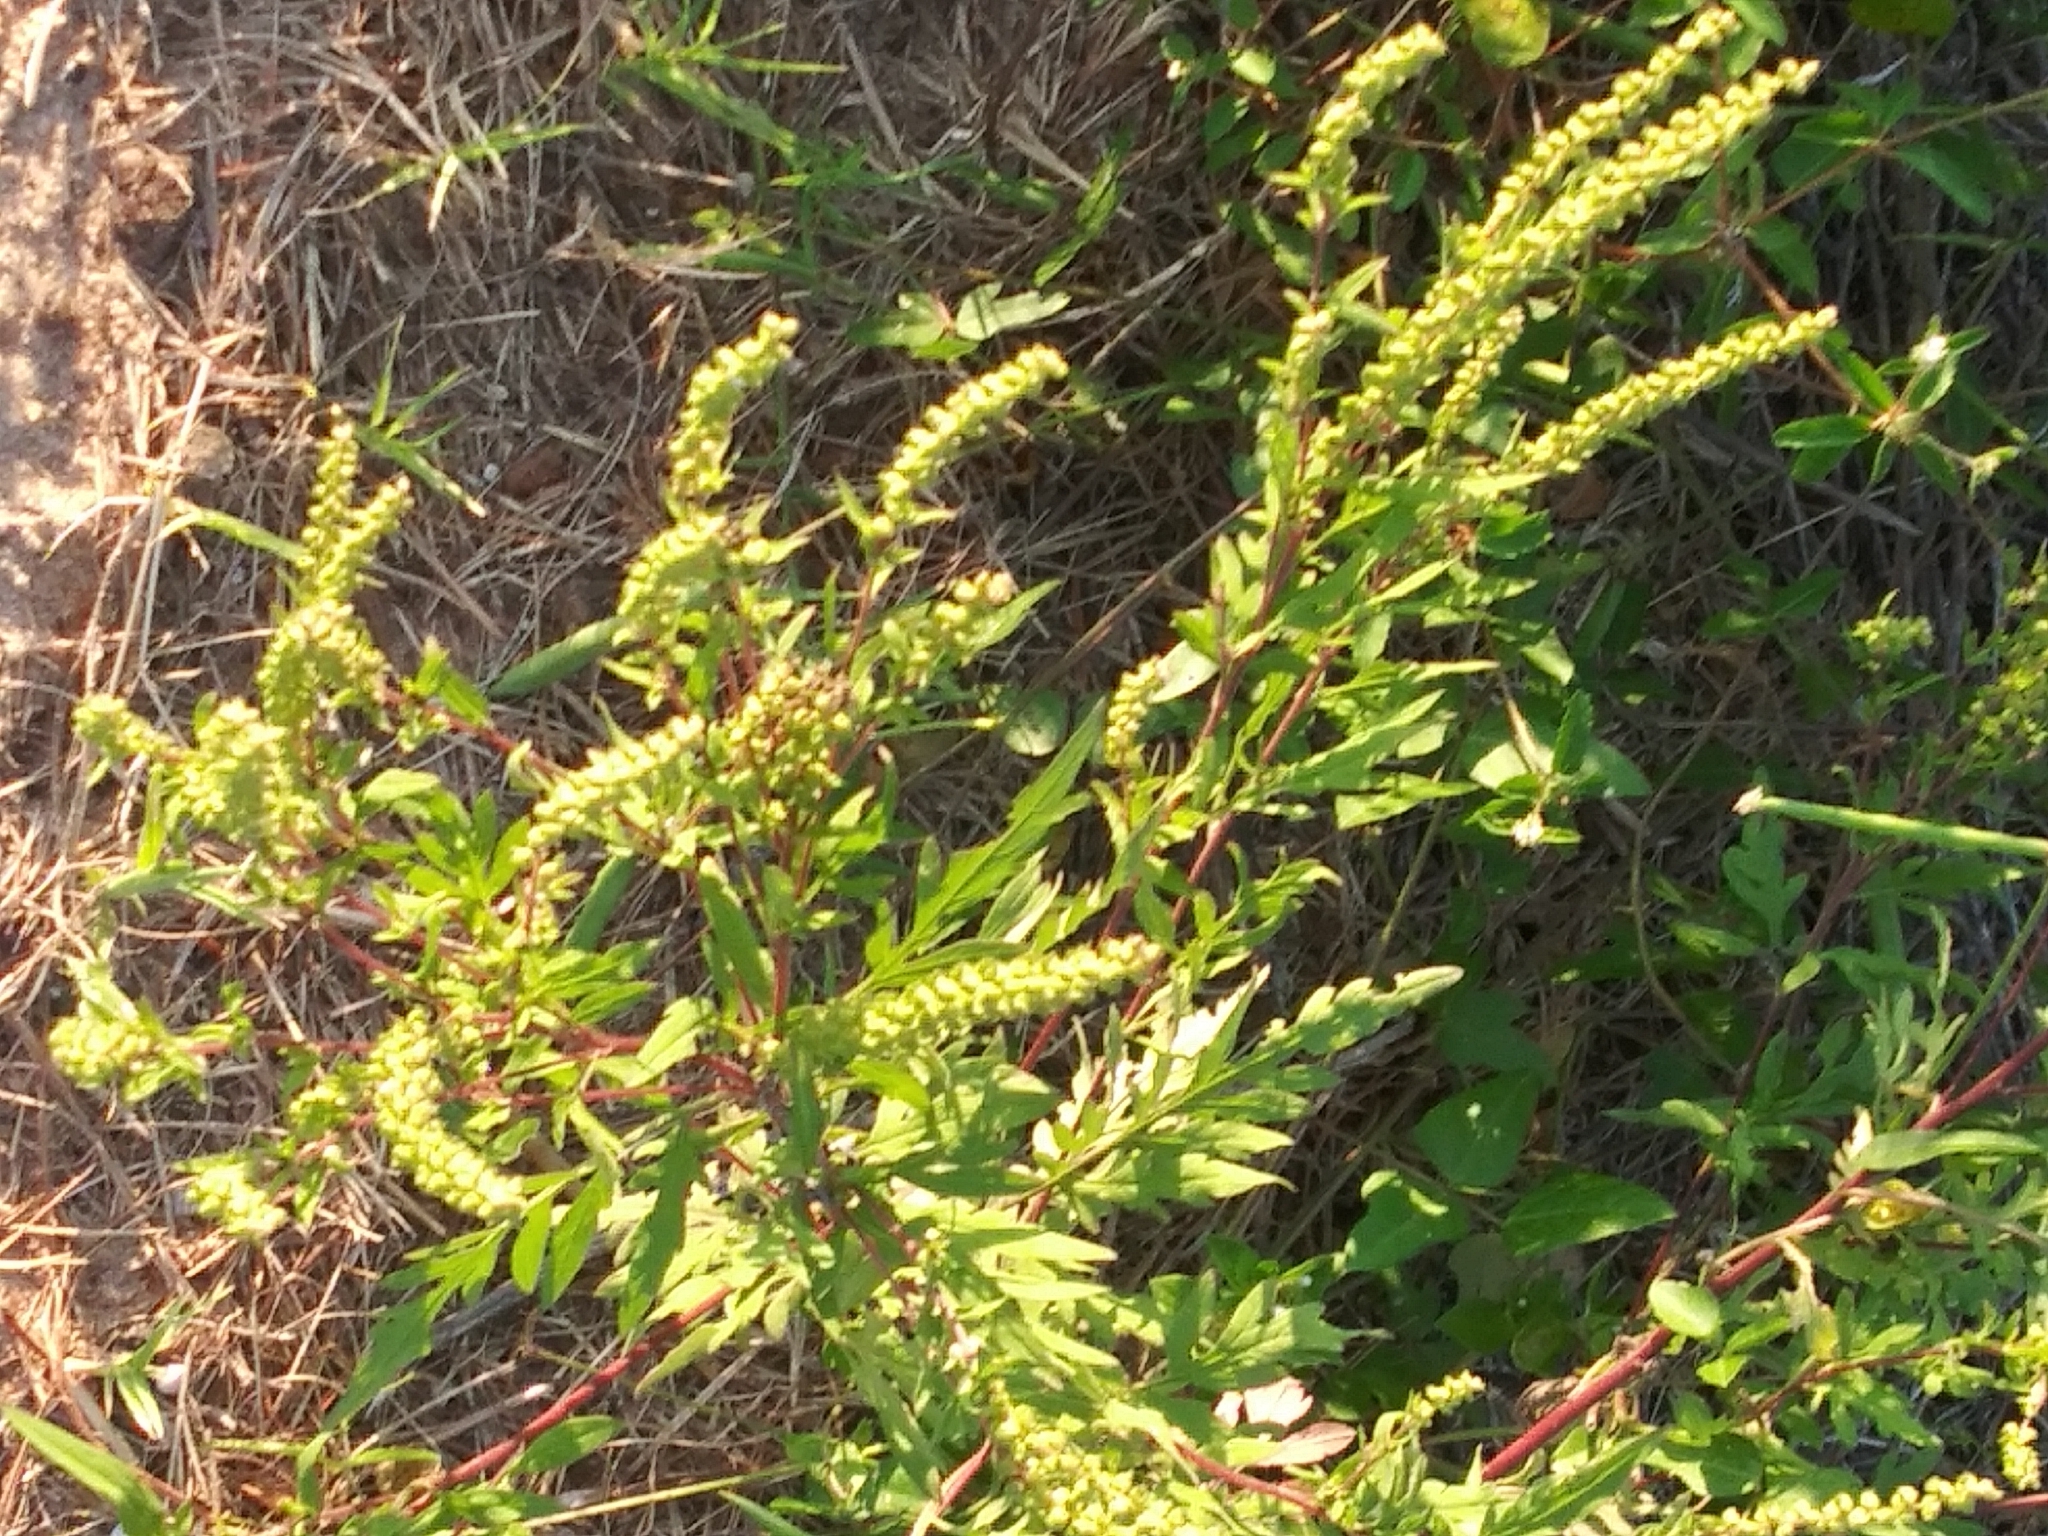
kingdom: Plantae
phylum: Tracheophyta
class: Magnoliopsida
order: Asterales
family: Asteraceae
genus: Ambrosia
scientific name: Ambrosia artemisiifolia
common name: Annual ragweed
